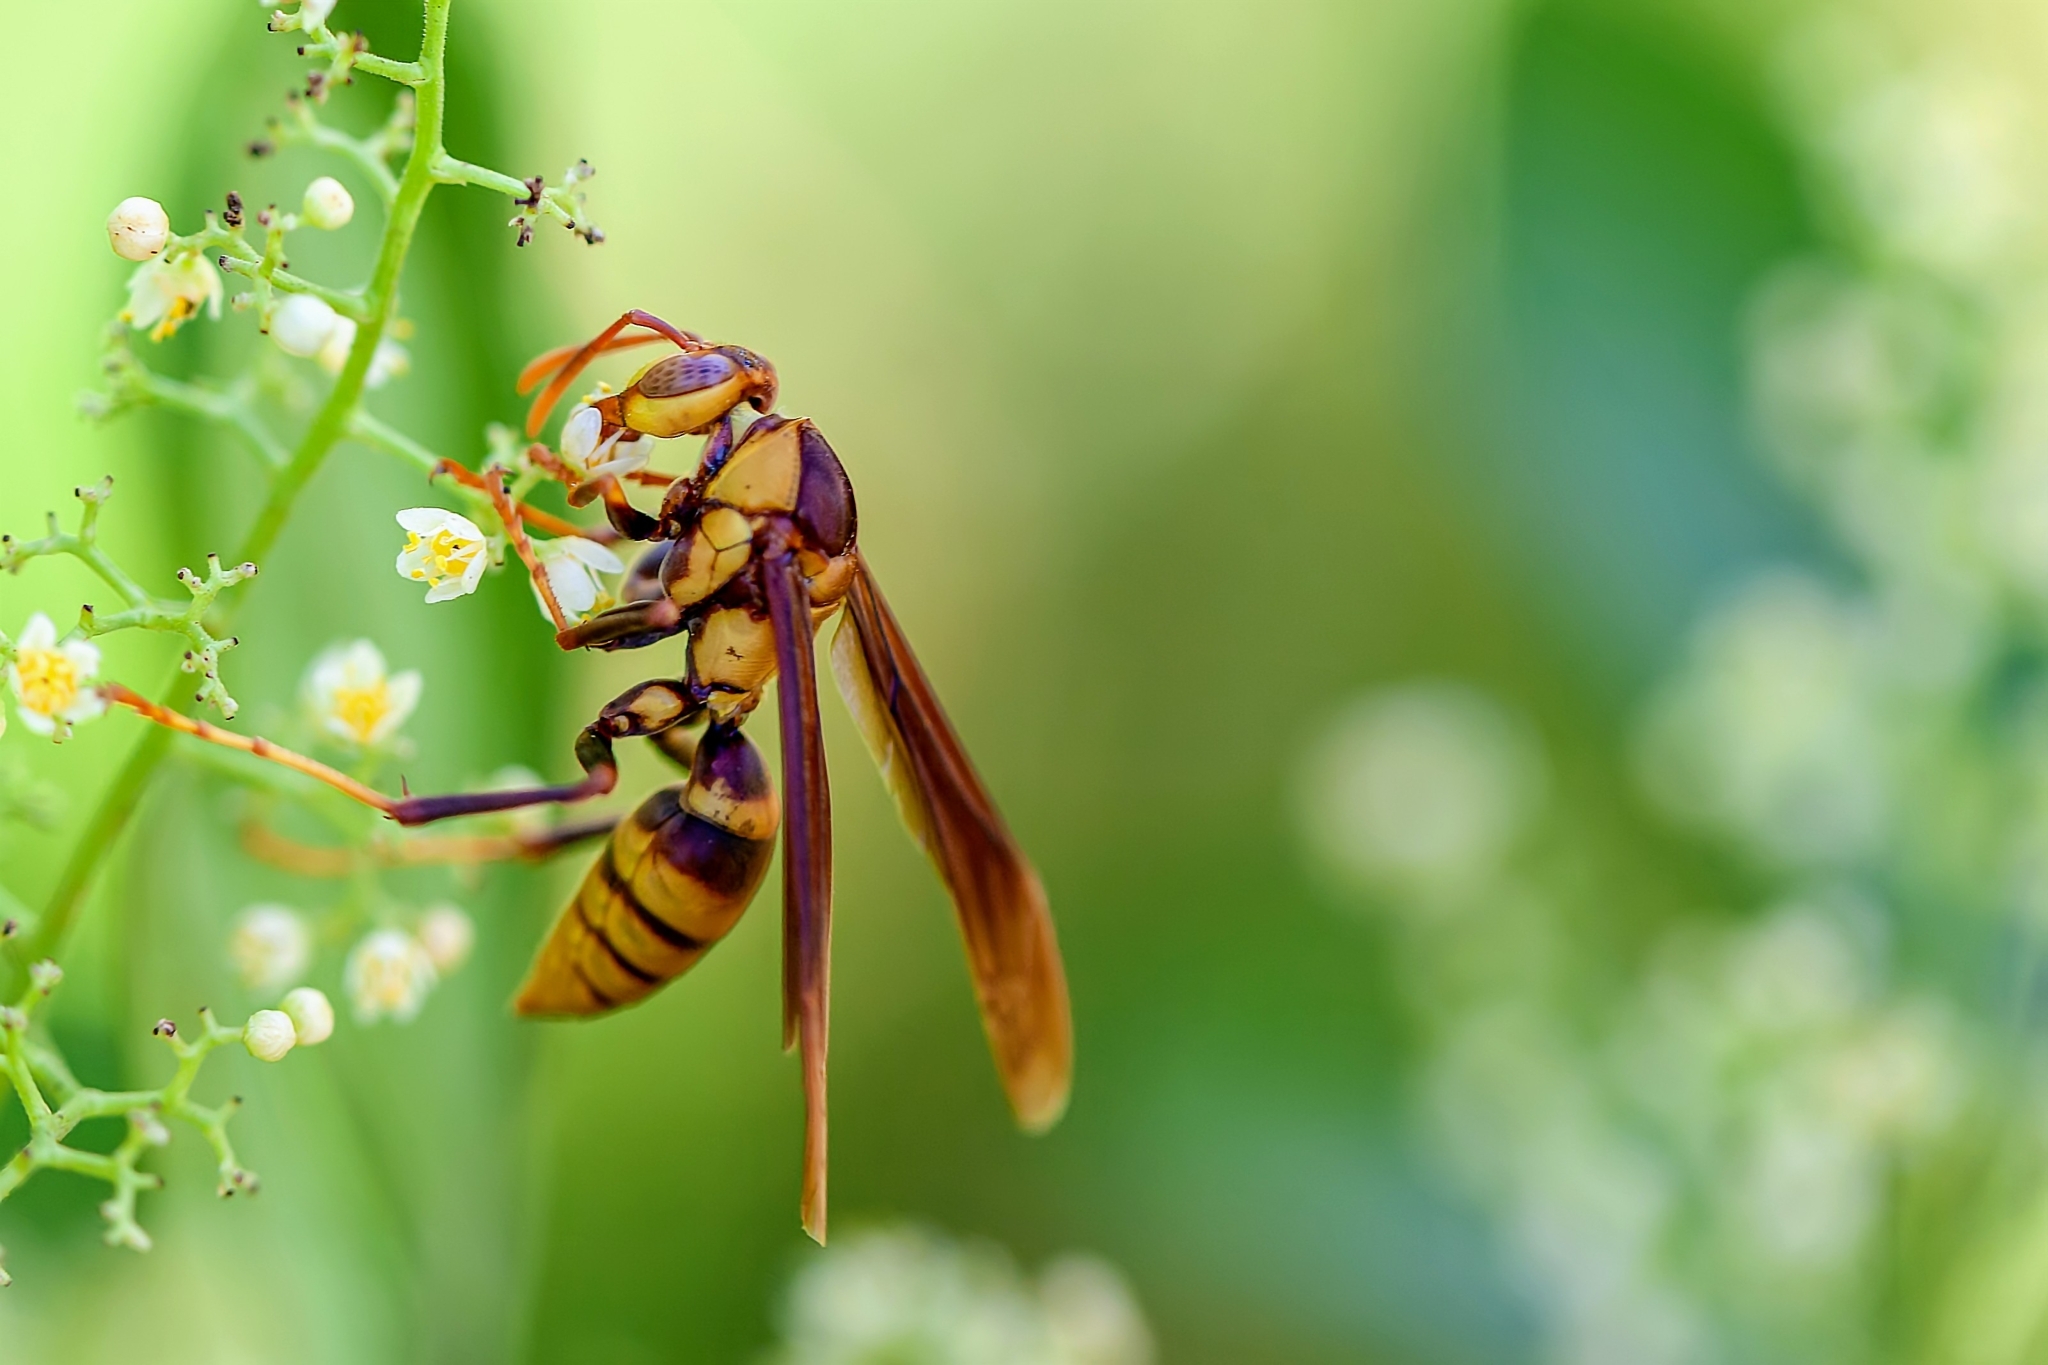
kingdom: Animalia
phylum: Arthropoda
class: Insecta
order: Hymenoptera
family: Eumenidae
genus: Polistes
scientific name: Polistes major
